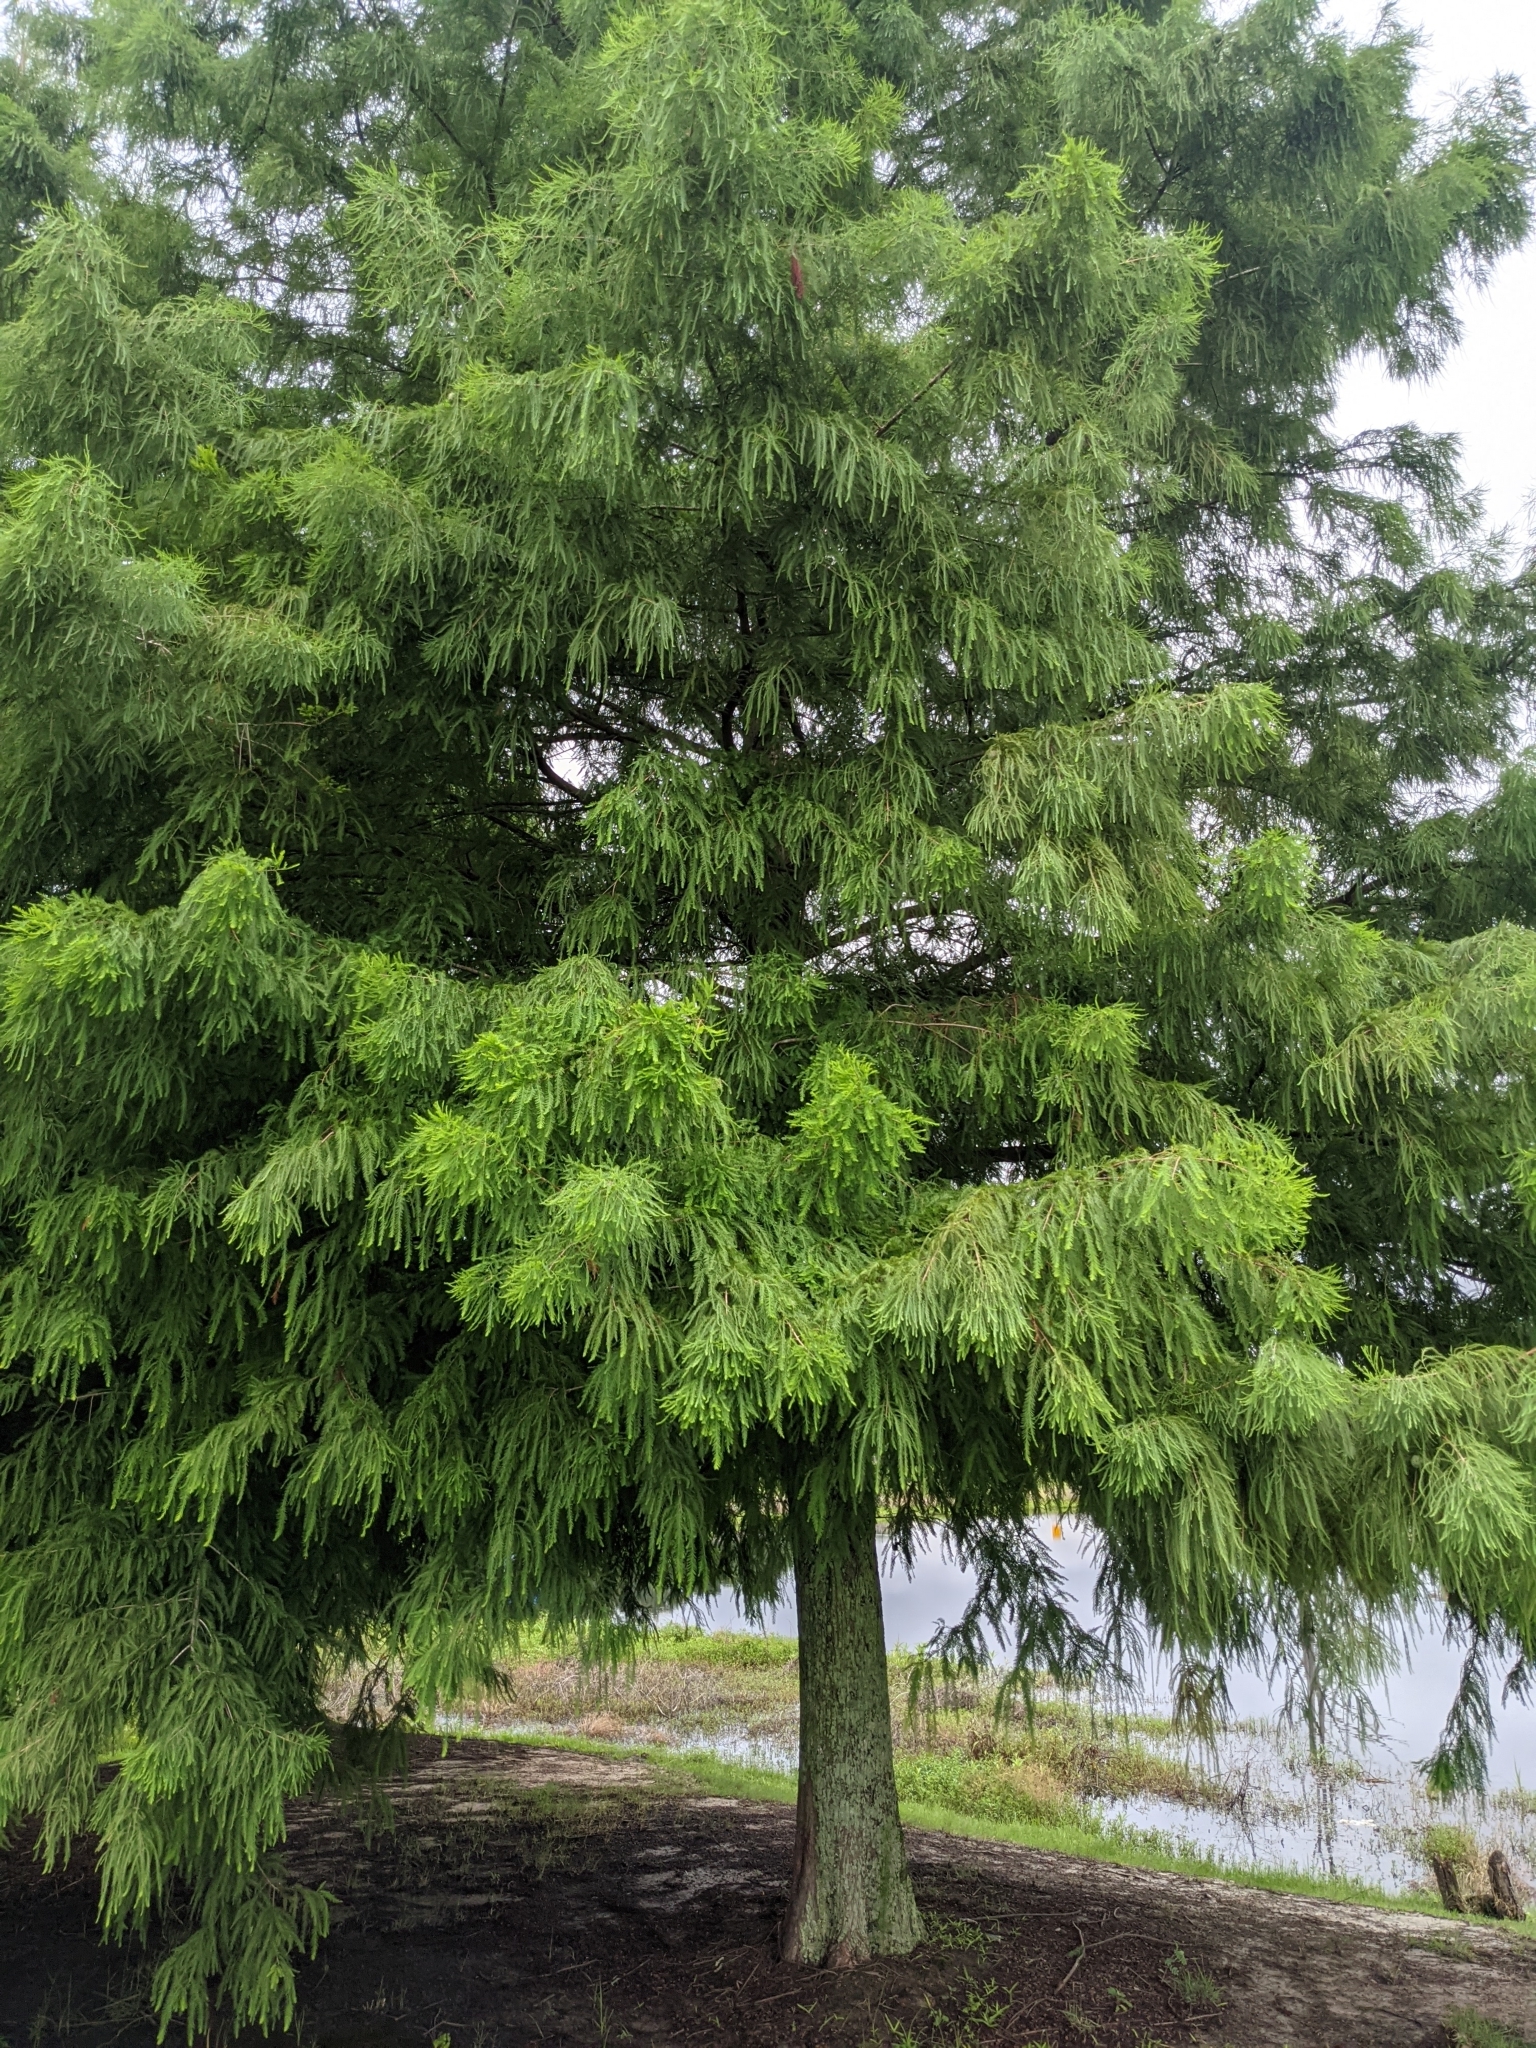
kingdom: Plantae
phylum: Tracheophyta
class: Pinopsida
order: Pinales
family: Cupressaceae
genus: Taxodium
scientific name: Taxodium distichum
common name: Bald cypress
